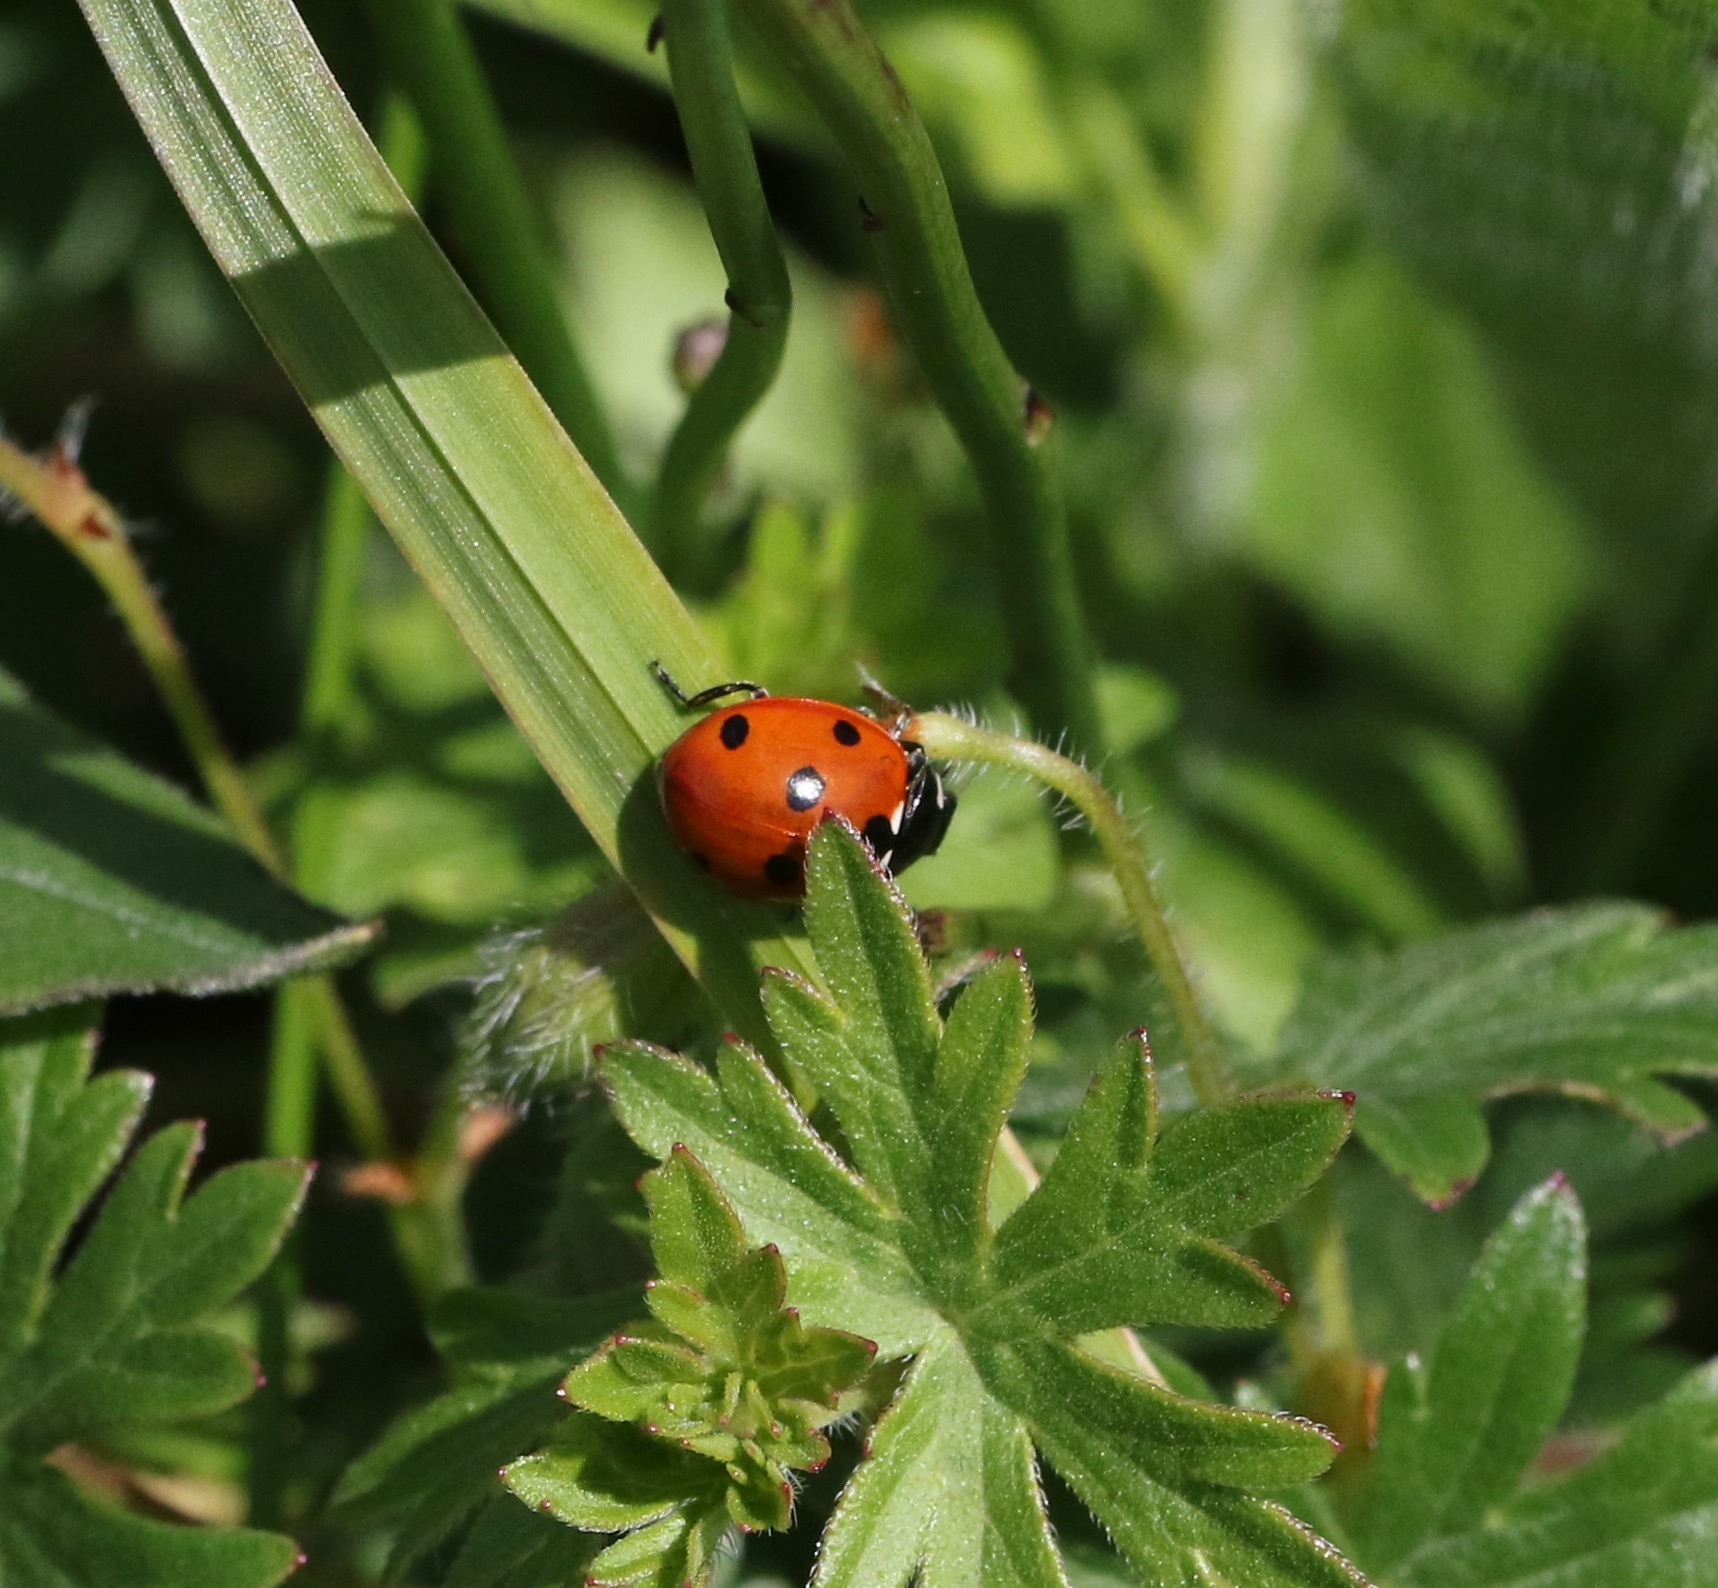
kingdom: Animalia
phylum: Arthropoda
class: Insecta
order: Coleoptera
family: Coccinellidae
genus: Coccinella
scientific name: Coccinella septempunctata
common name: Sevenspotted lady beetle
